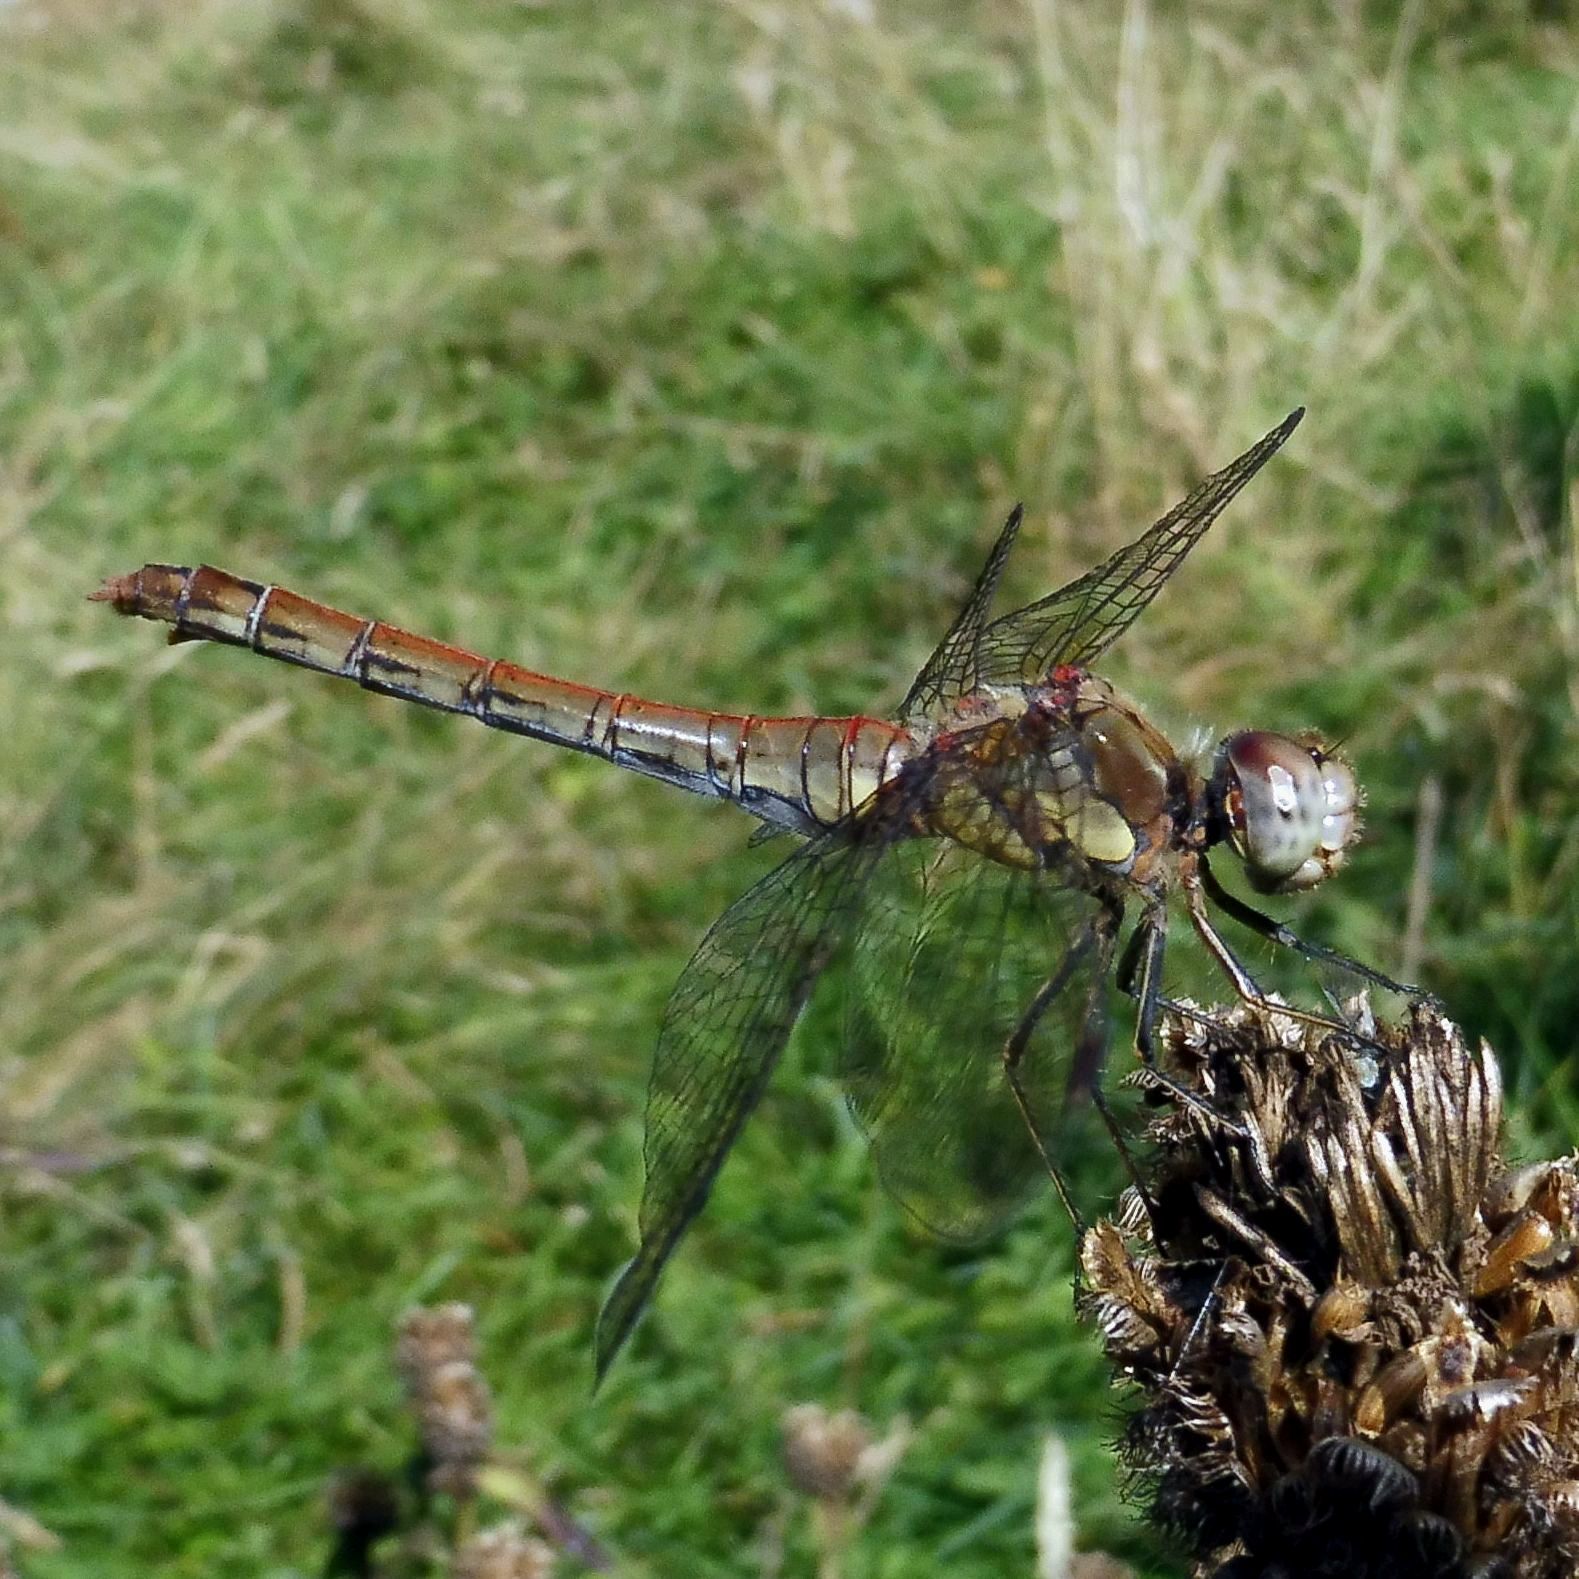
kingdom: Animalia
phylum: Arthropoda
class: Insecta
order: Odonata
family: Libellulidae
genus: Sympetrum
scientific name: Sympetrum striolatum
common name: Common darter
